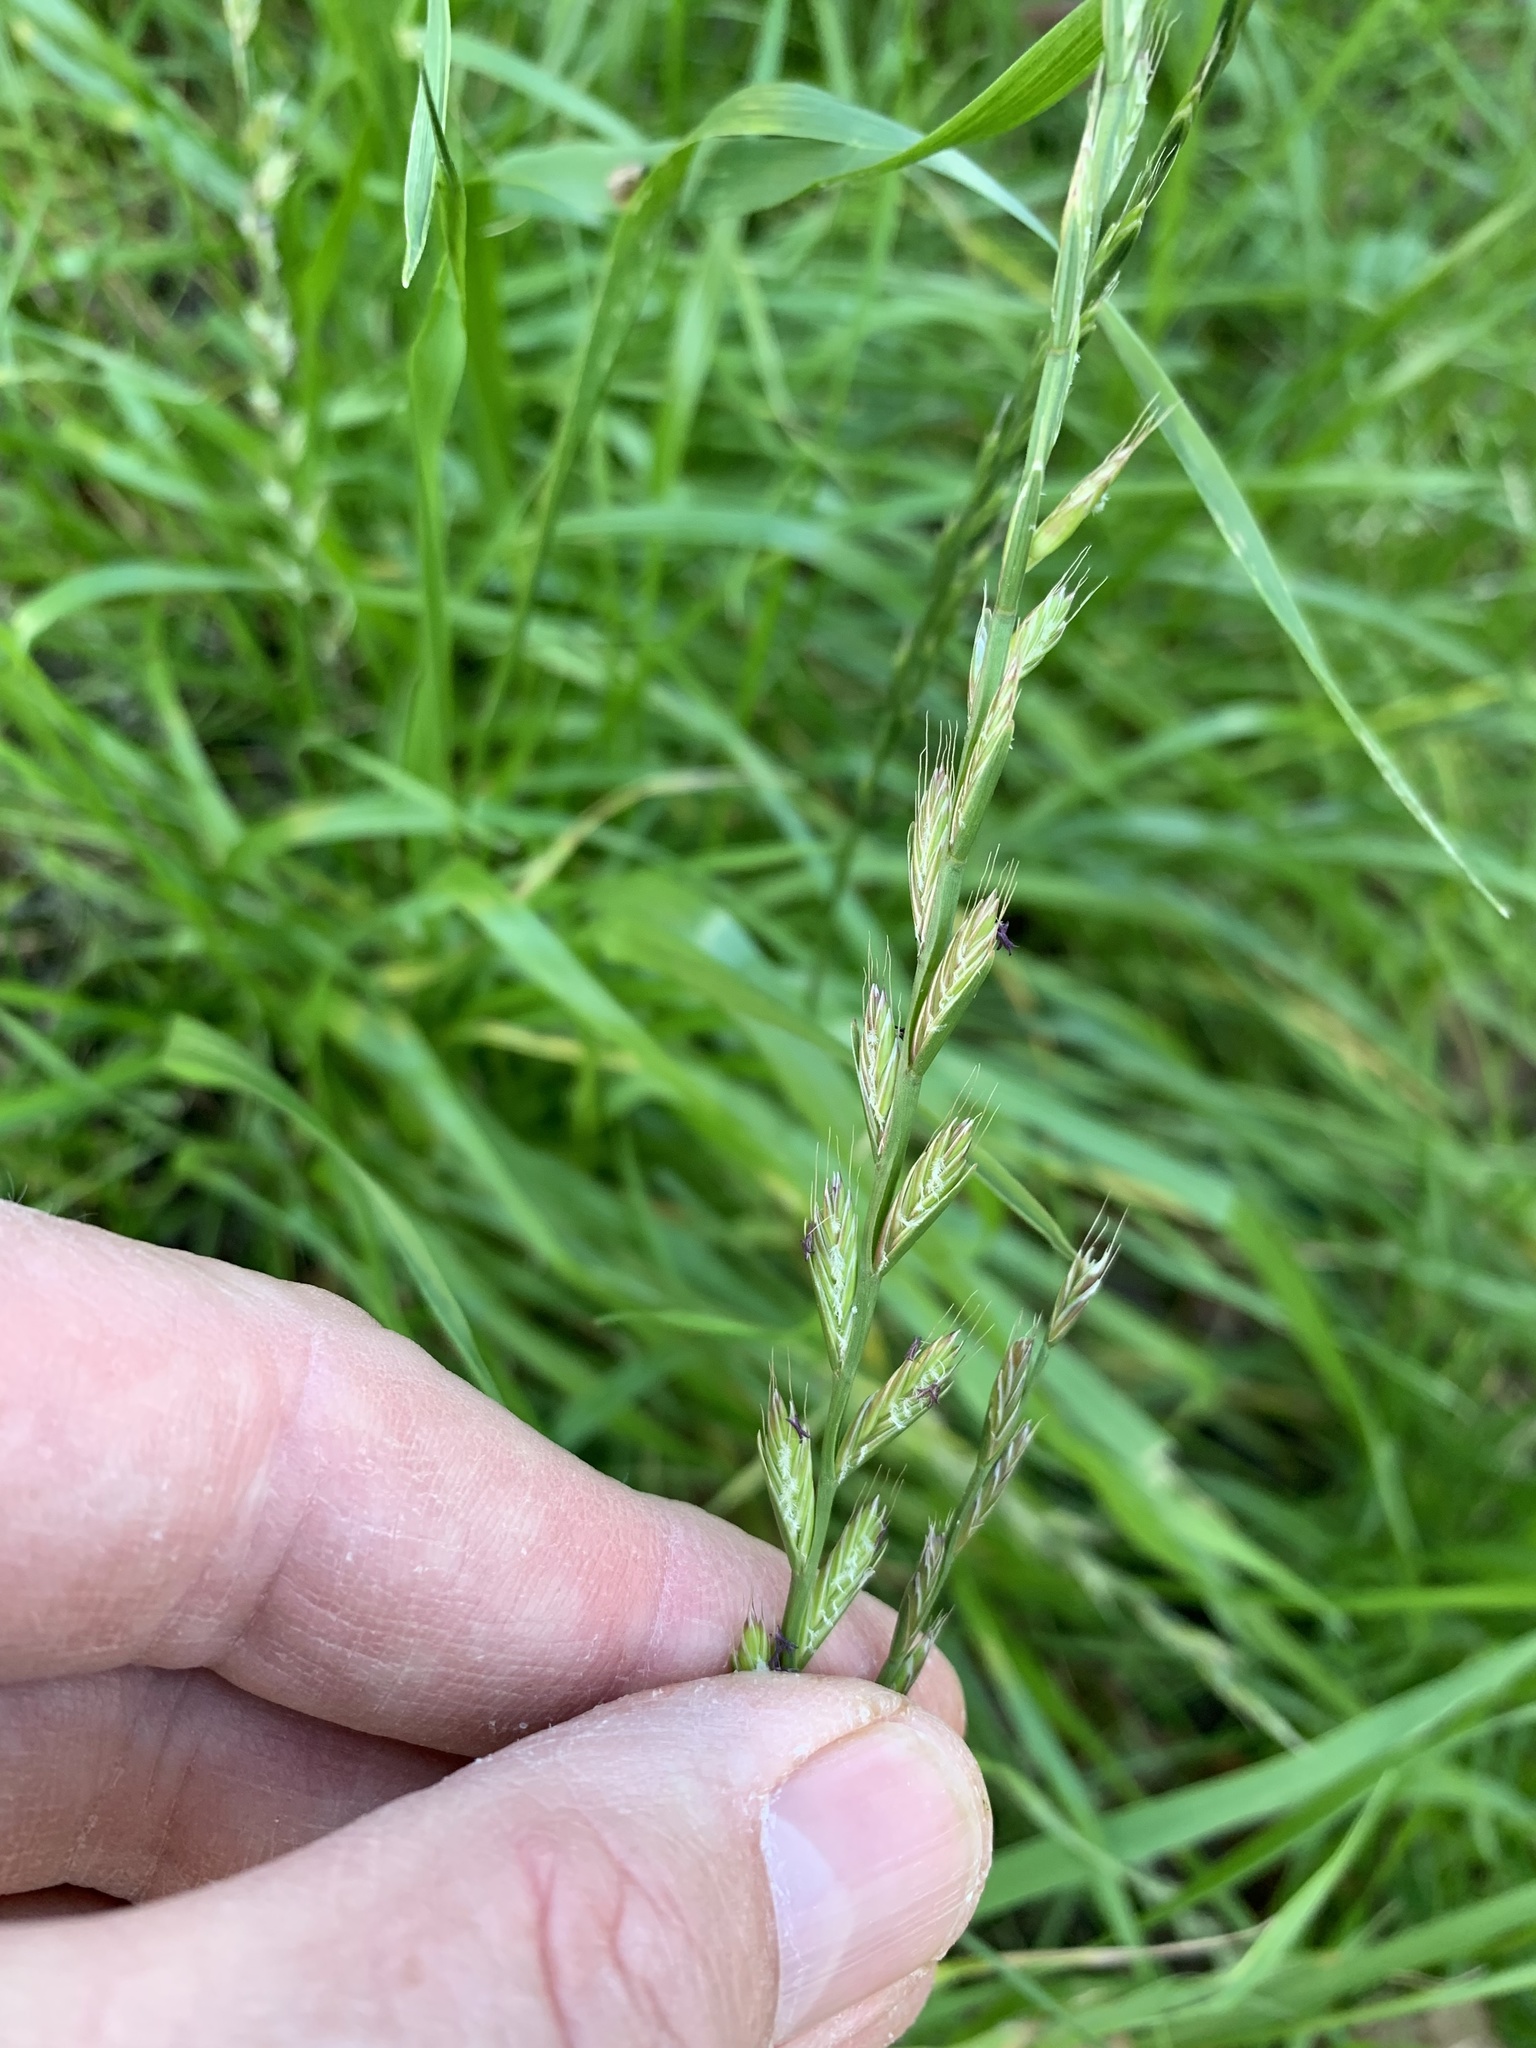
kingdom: Plantae
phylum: Tracheophyta
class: Liliopsida
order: Poales
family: Poaceae
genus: Lolium
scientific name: Lolium
